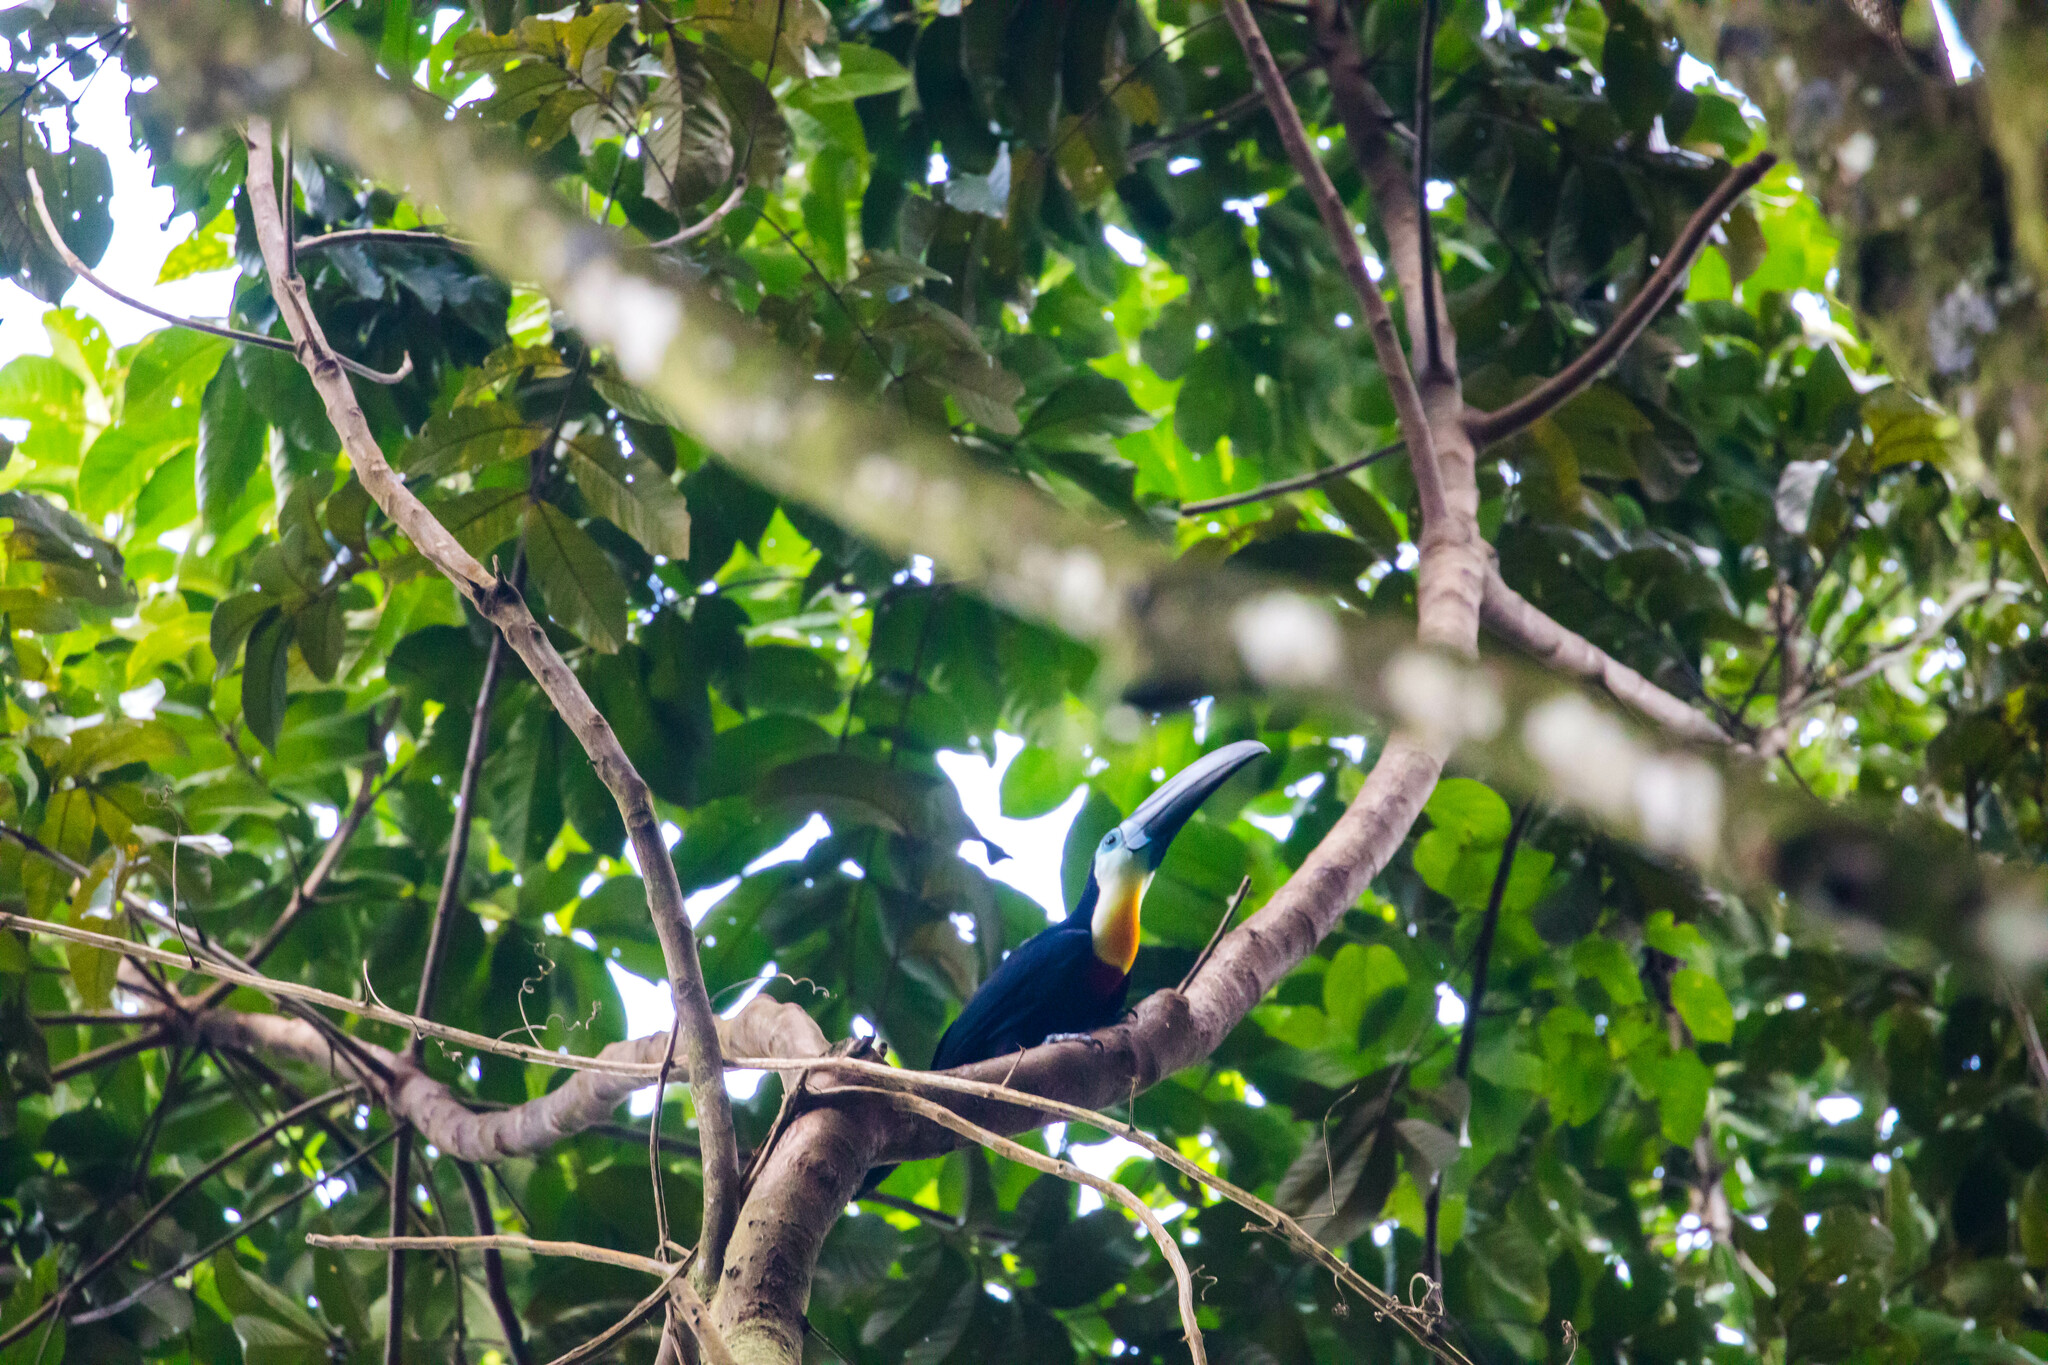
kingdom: Animalia
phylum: Chordata
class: Aves
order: Piciformes
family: Ramphastidae
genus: Ramphastos
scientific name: Ramphastos vitellinus
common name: Channel-billed toucan
